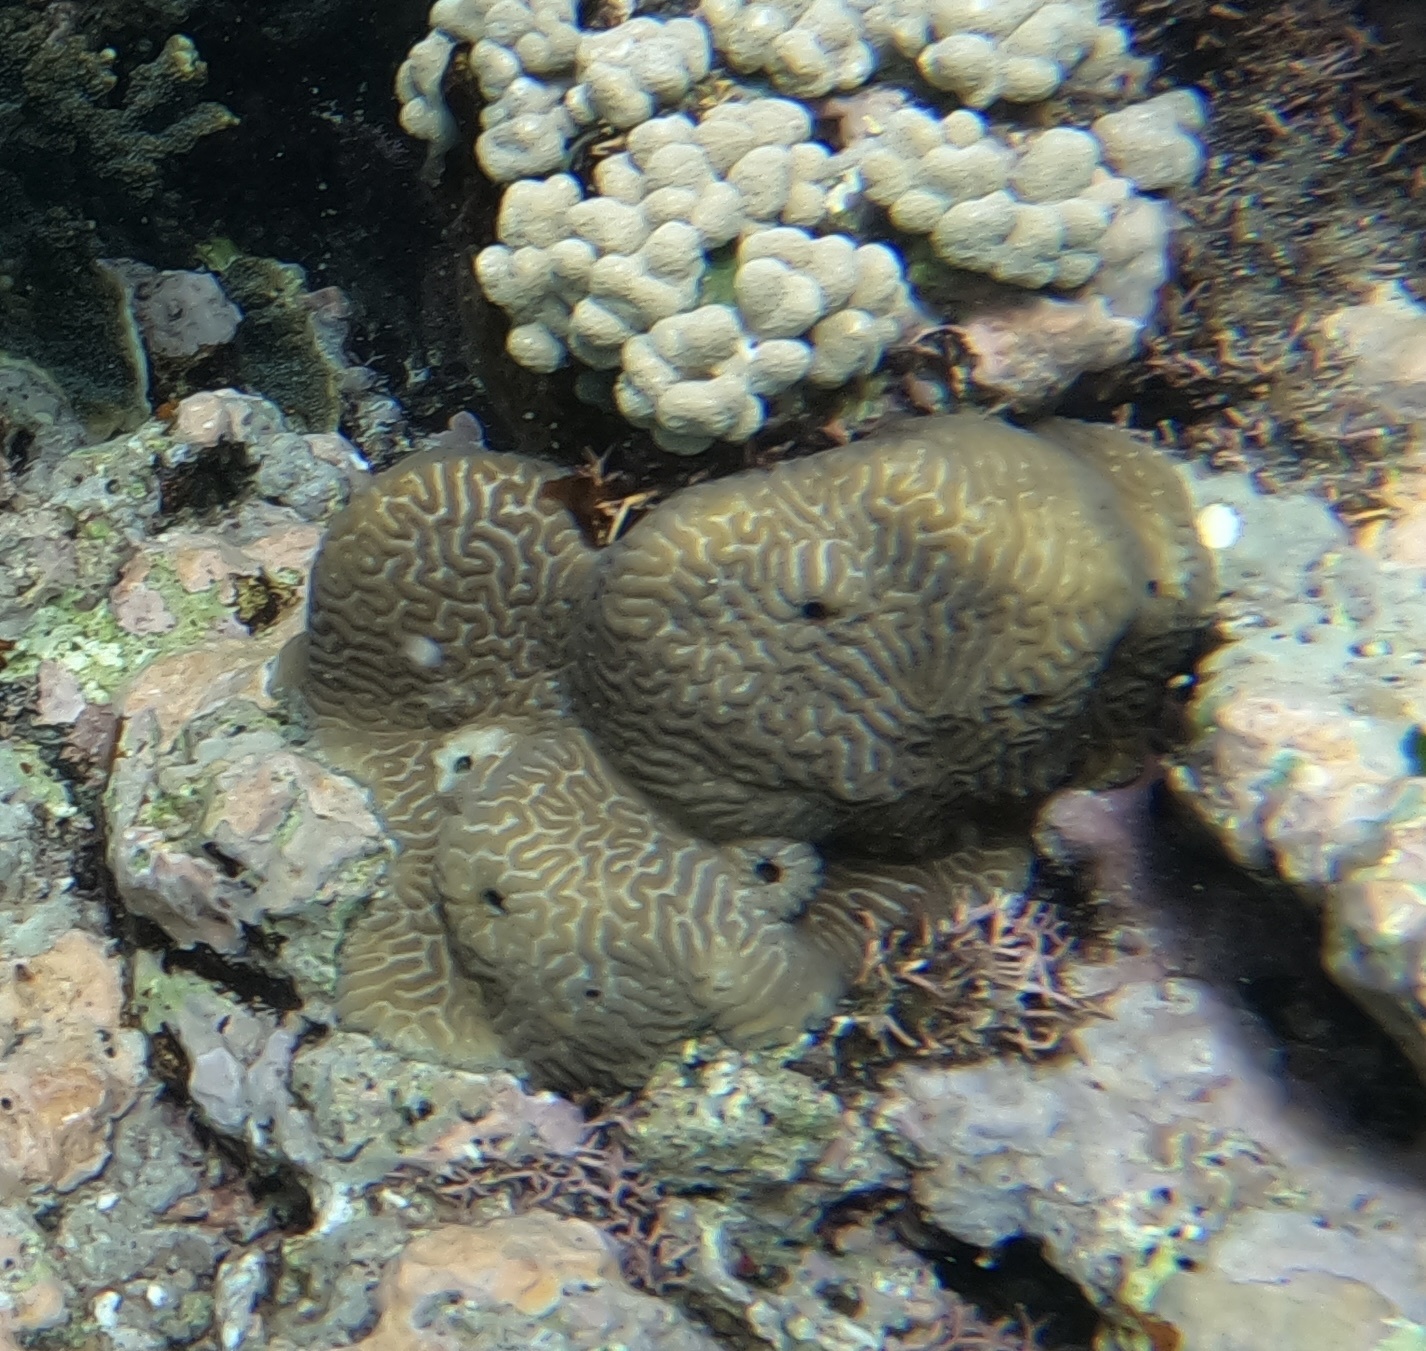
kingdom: Animalia
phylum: Cnidaria
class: Anthozoa
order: Scleractinia
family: Merulinidae
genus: Leptoria
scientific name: Leptoria phrygia
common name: Least valley coral
